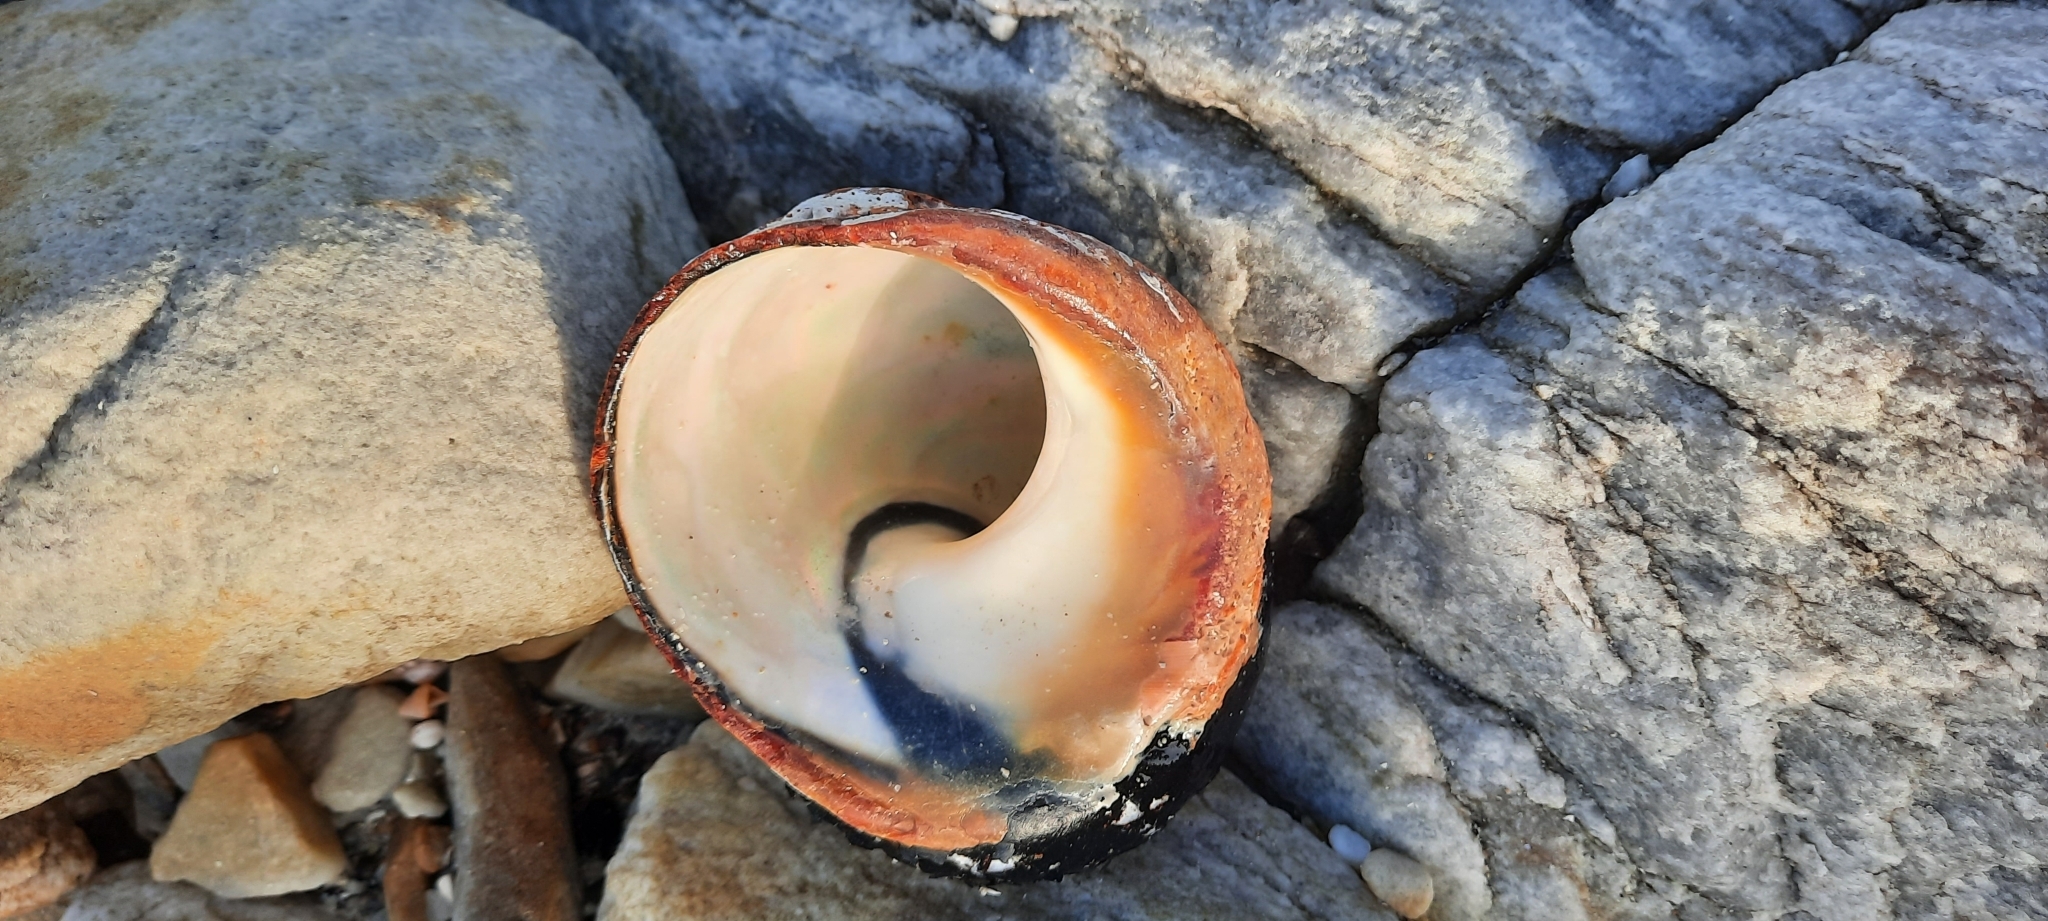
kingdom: Animalia
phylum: Mollusca
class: Gastropoda
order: Trochida
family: Turbinidae
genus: Turbo
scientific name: Turbo sarmaticus
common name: South african turban
